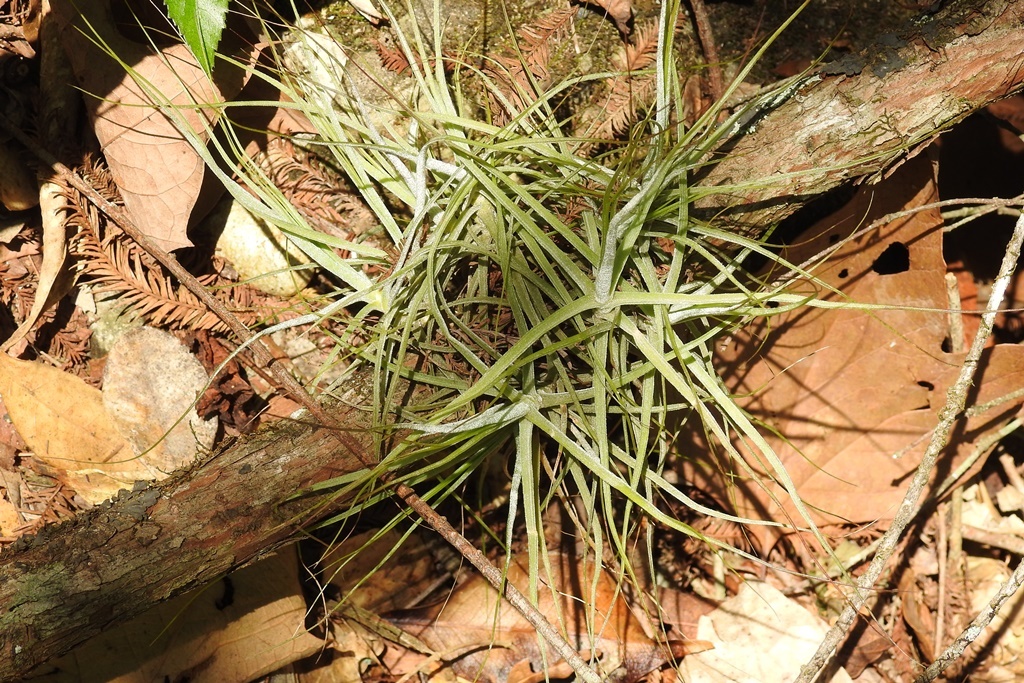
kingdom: Plantae
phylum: Tracheophyta
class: Liliopsida
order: Poales
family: Bromeliaceae
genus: Tillandsia
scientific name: Tillandsia schiedeana
